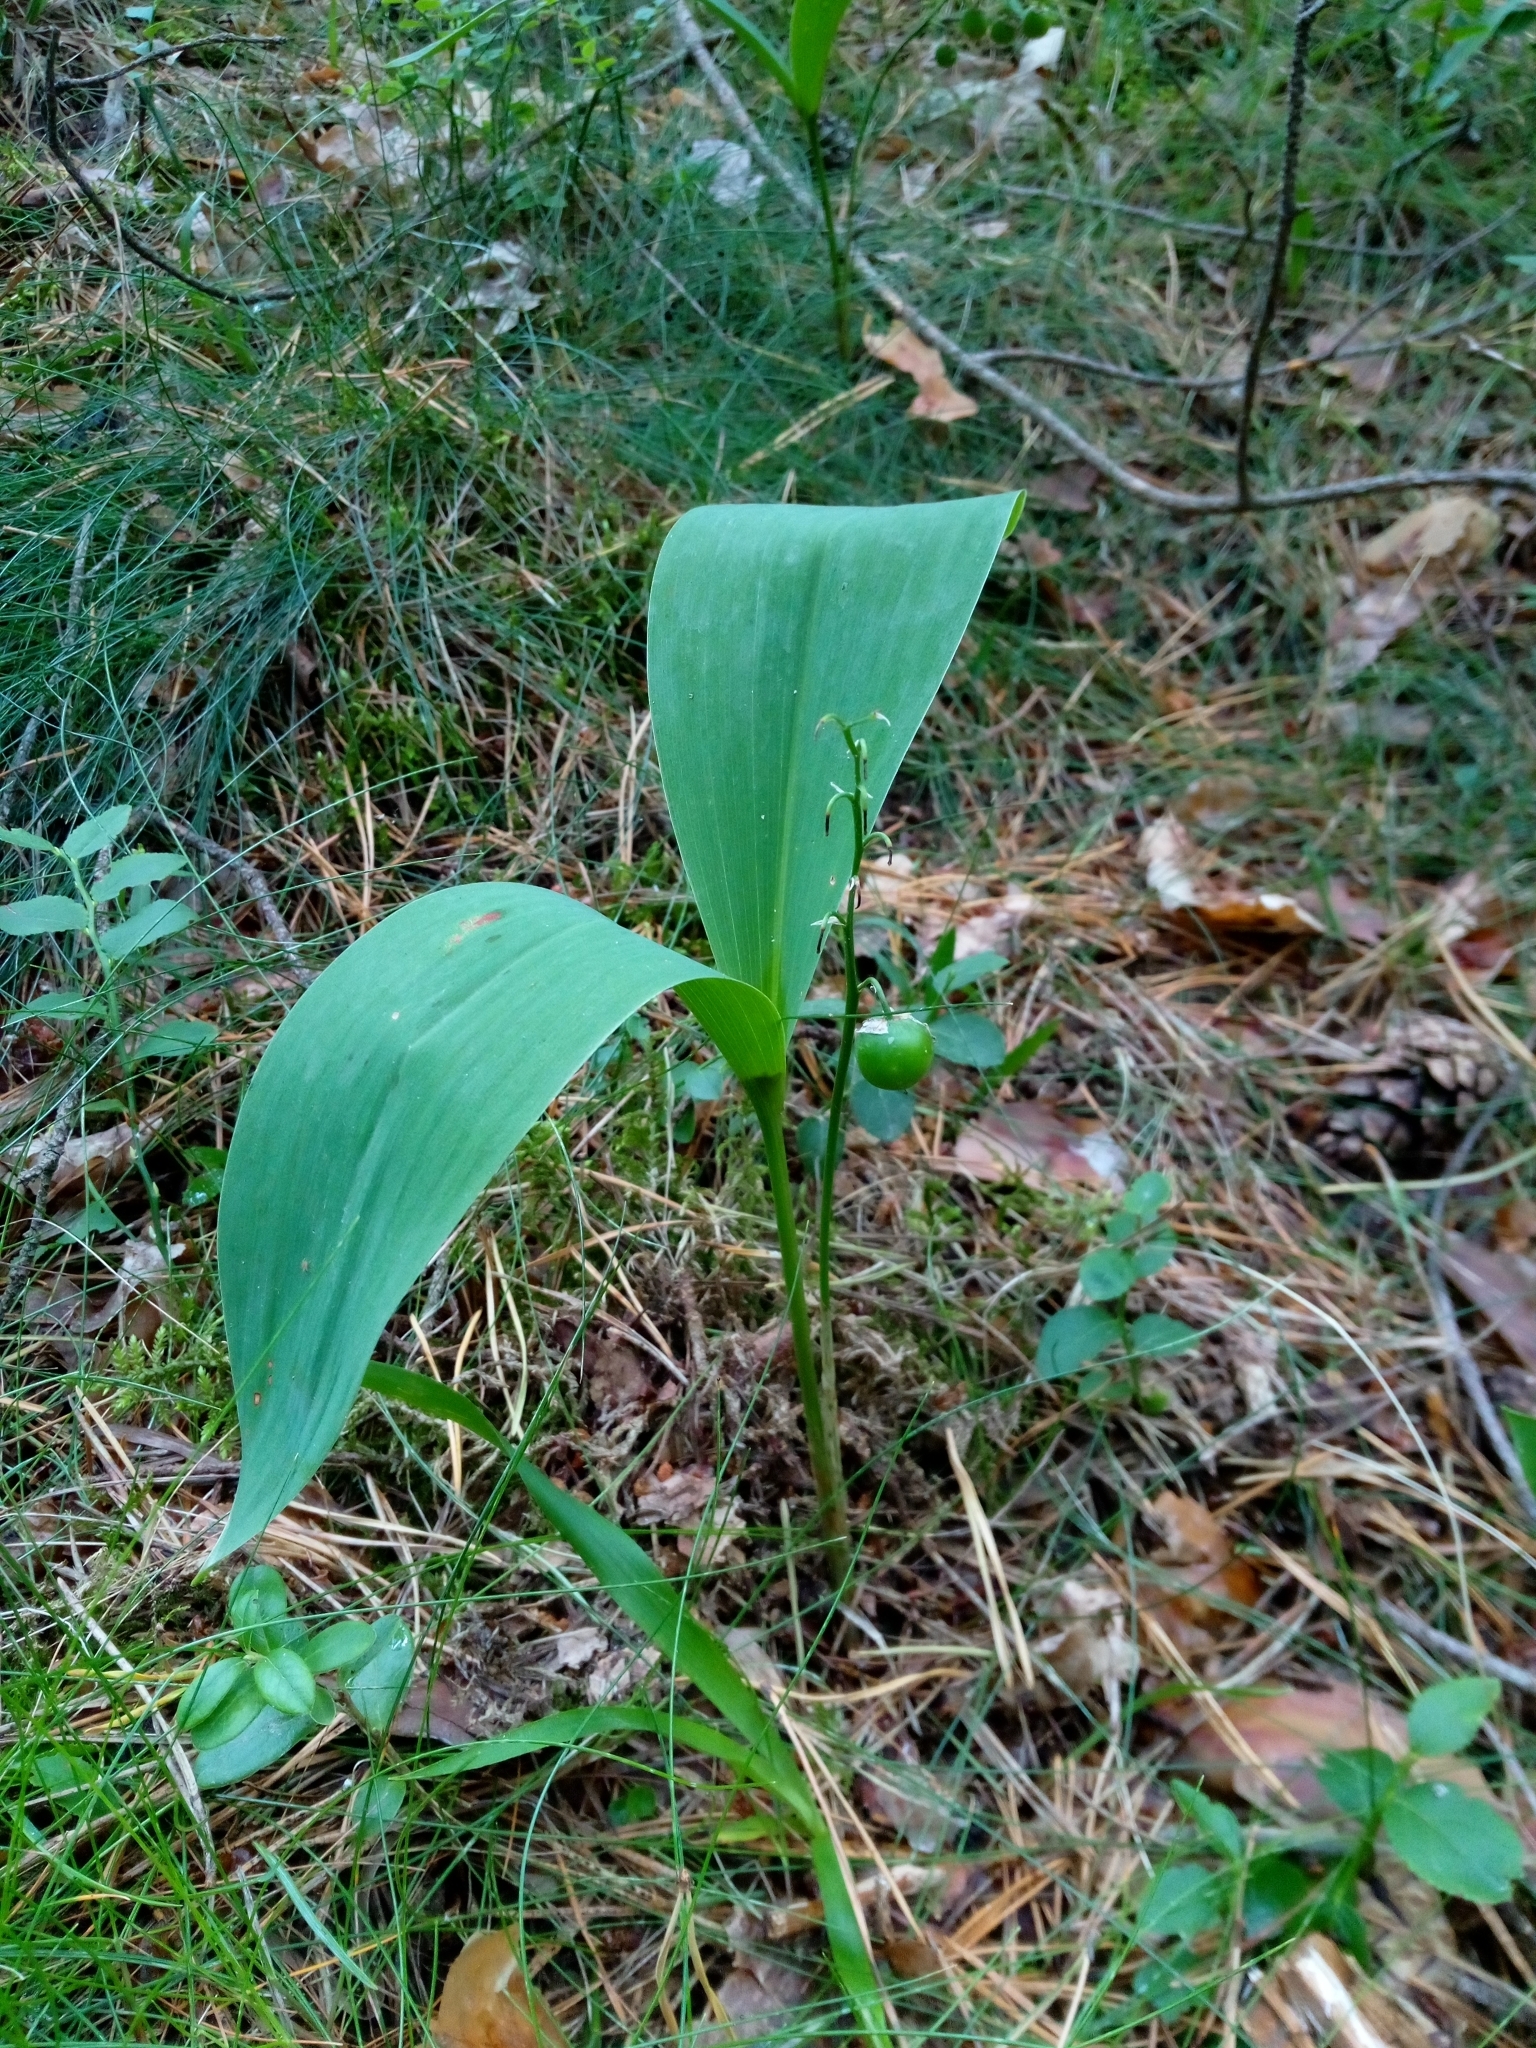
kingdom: Plantae
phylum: Tracheophyta
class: Liliopsida
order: Asparagales
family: Asparagaceae
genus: Convallaria
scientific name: Convallaria majalis
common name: Lily-of-the-valley
